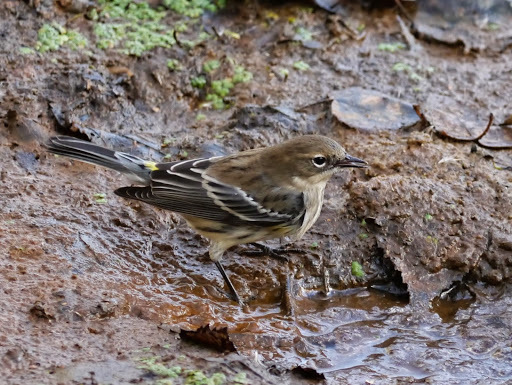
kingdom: Animalia
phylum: Chordata
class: Aves
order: Passeriformes
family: Parulidae
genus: Setophaga
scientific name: Setophaga coronata
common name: Myrtle warbler
